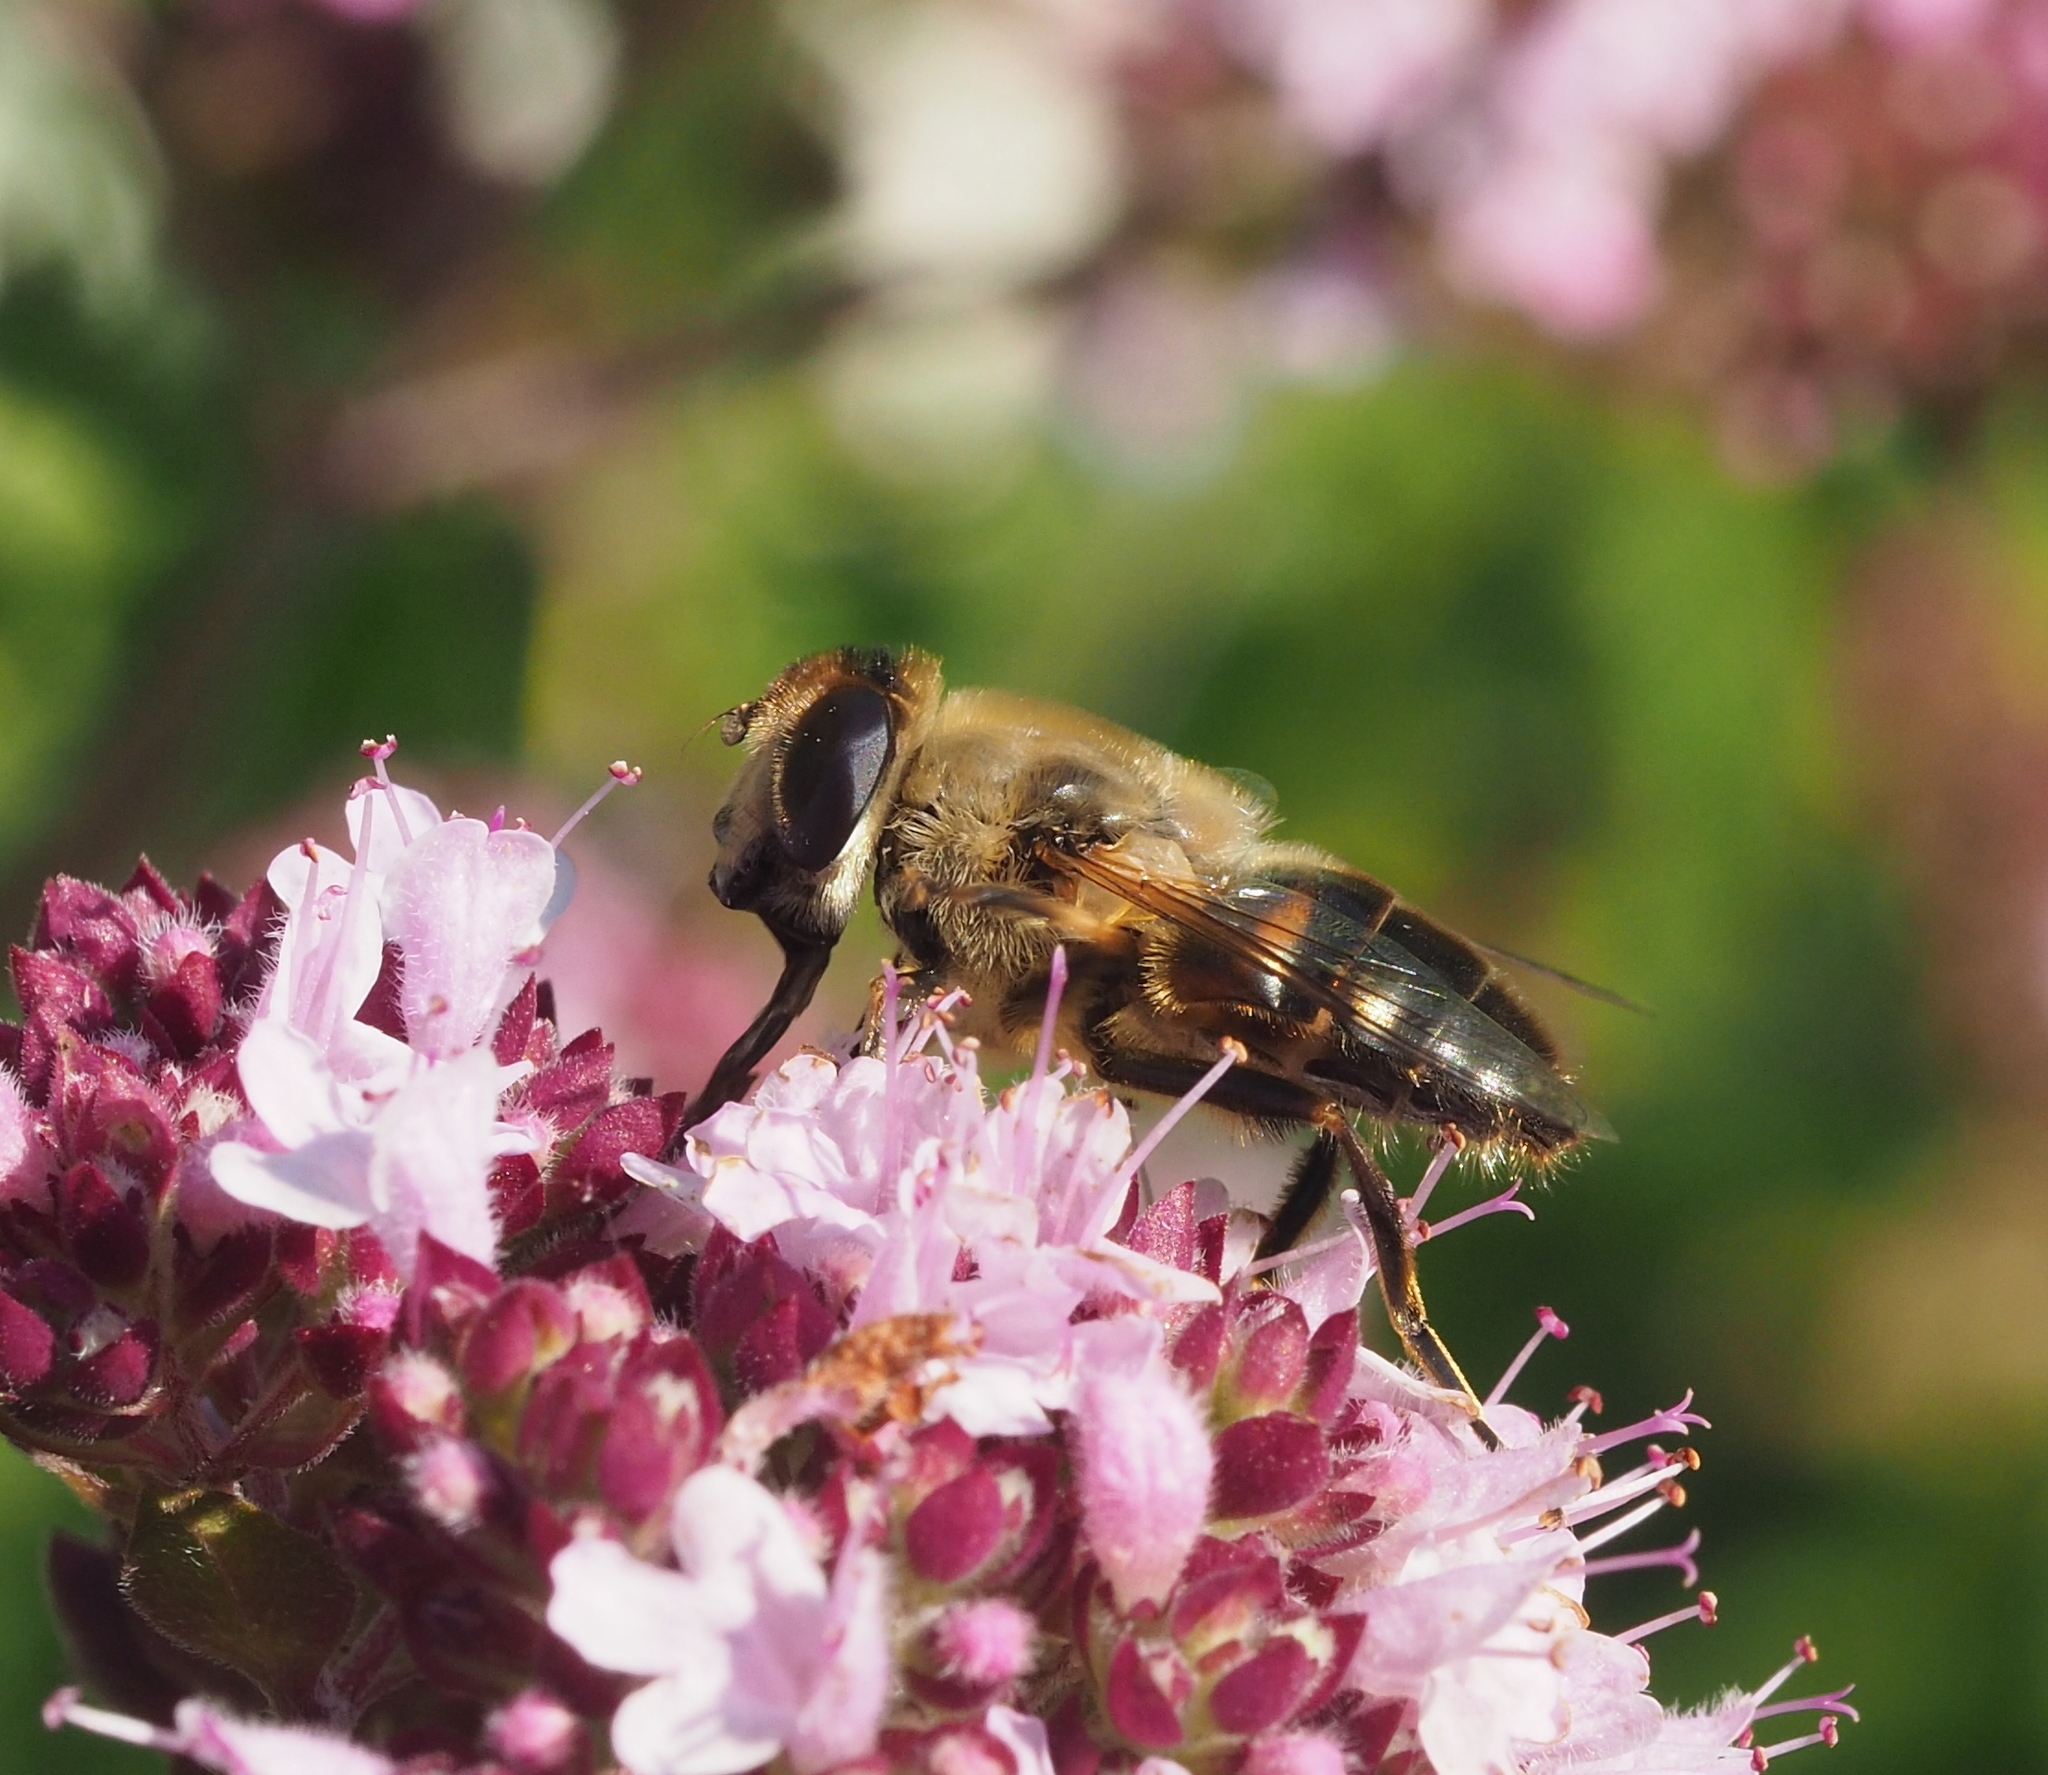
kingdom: Animalia
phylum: Arthropoda
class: Insecta
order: Diptera
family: Syrphidae
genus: Eristalis
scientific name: Eristalis tenax
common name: Drone fly
